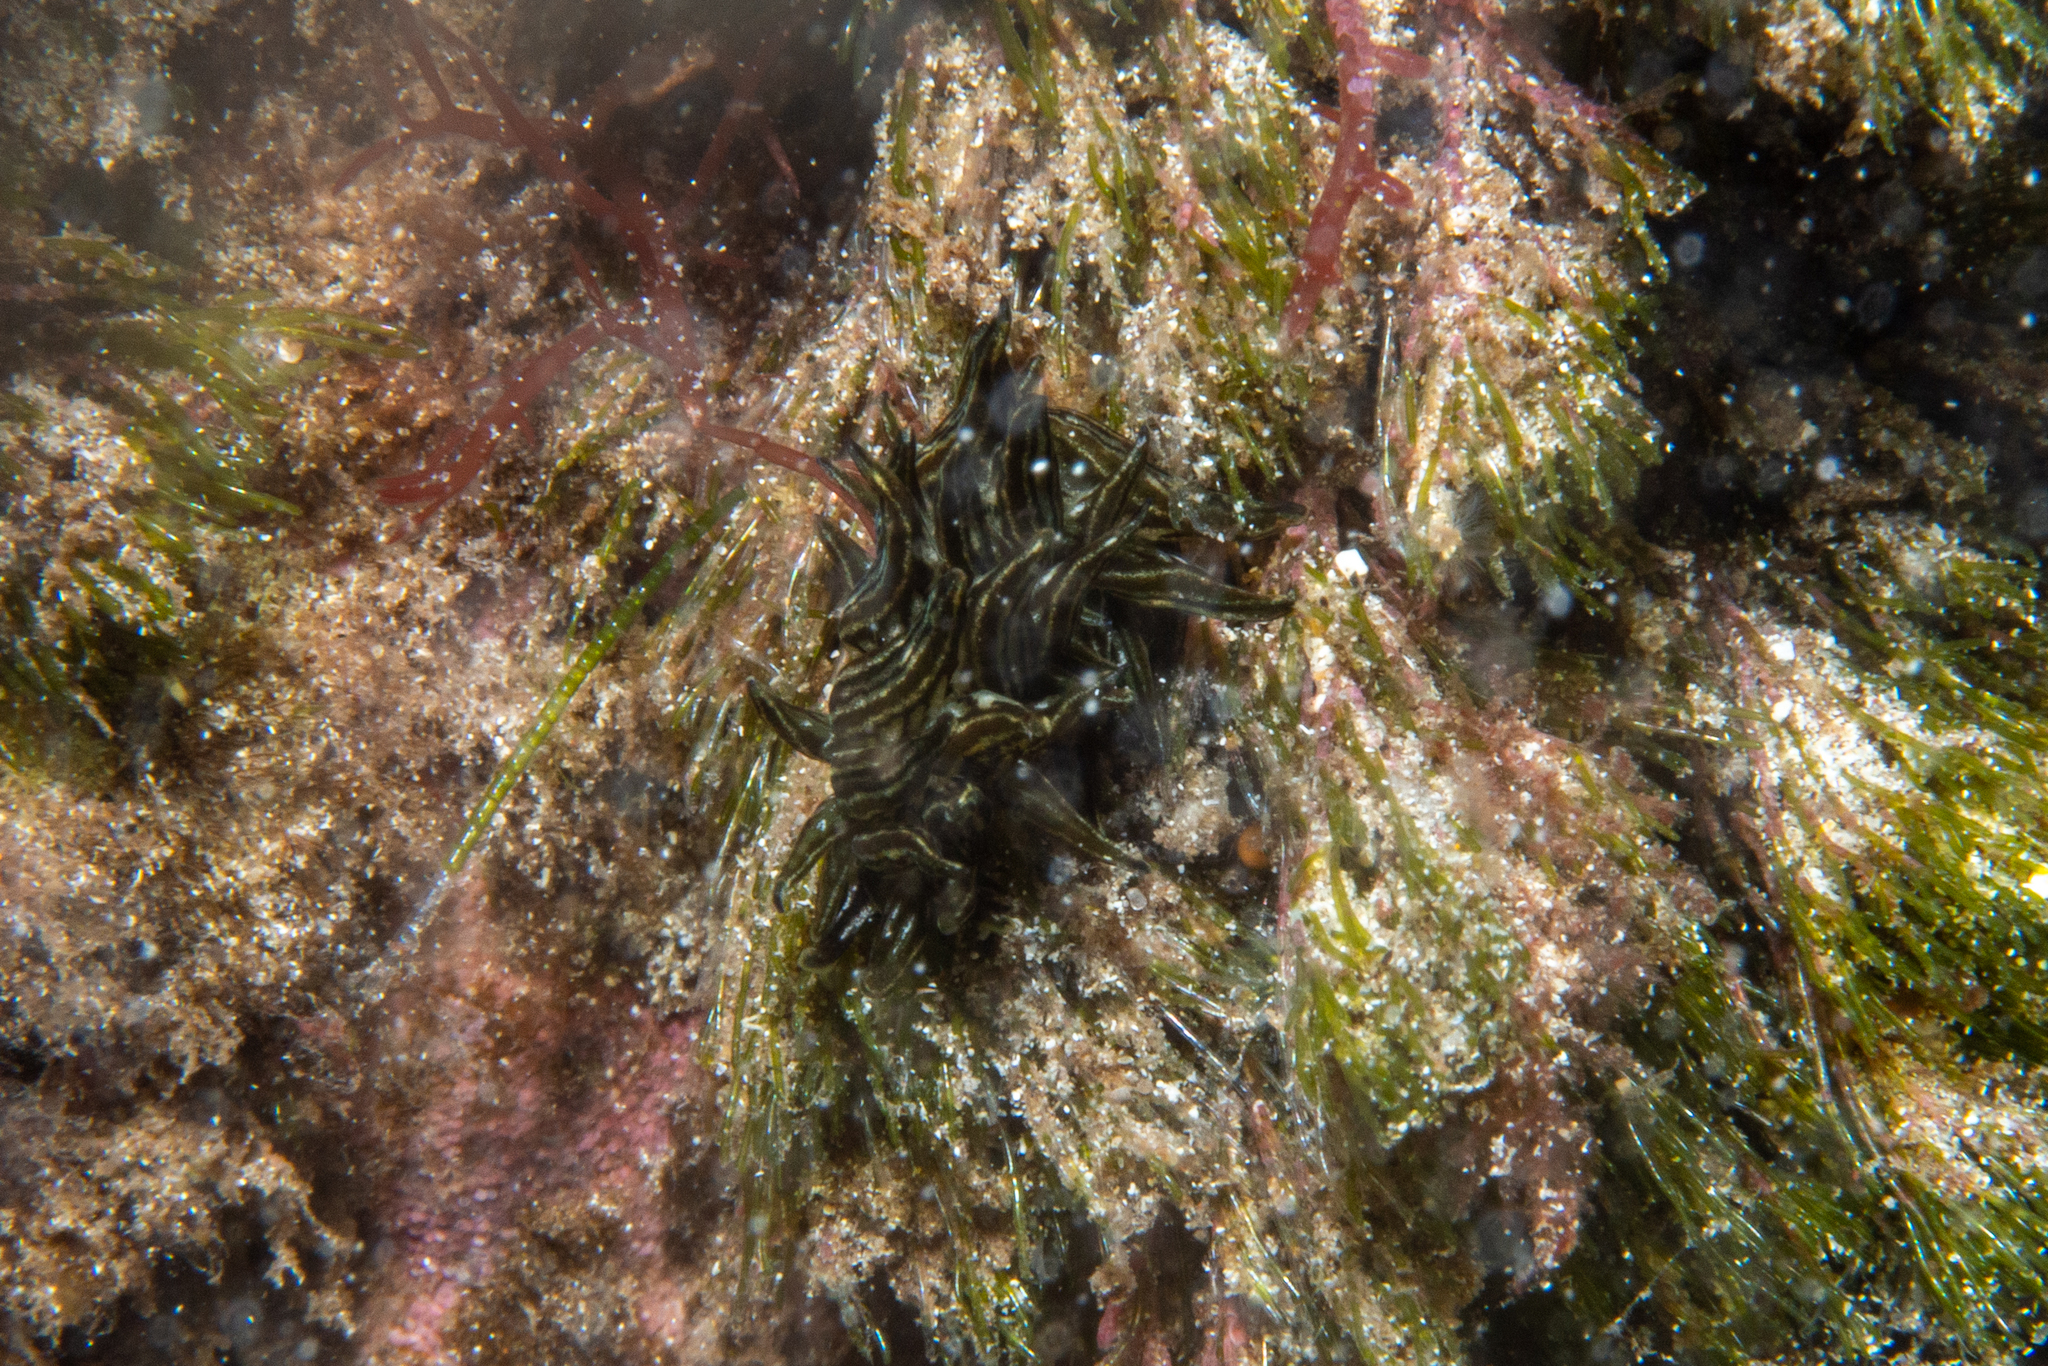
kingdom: Animalia
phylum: Mollusca
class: Gastropoda
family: Hermaeidae
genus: Aplysiopsis
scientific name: Aplysiopsis formosa
